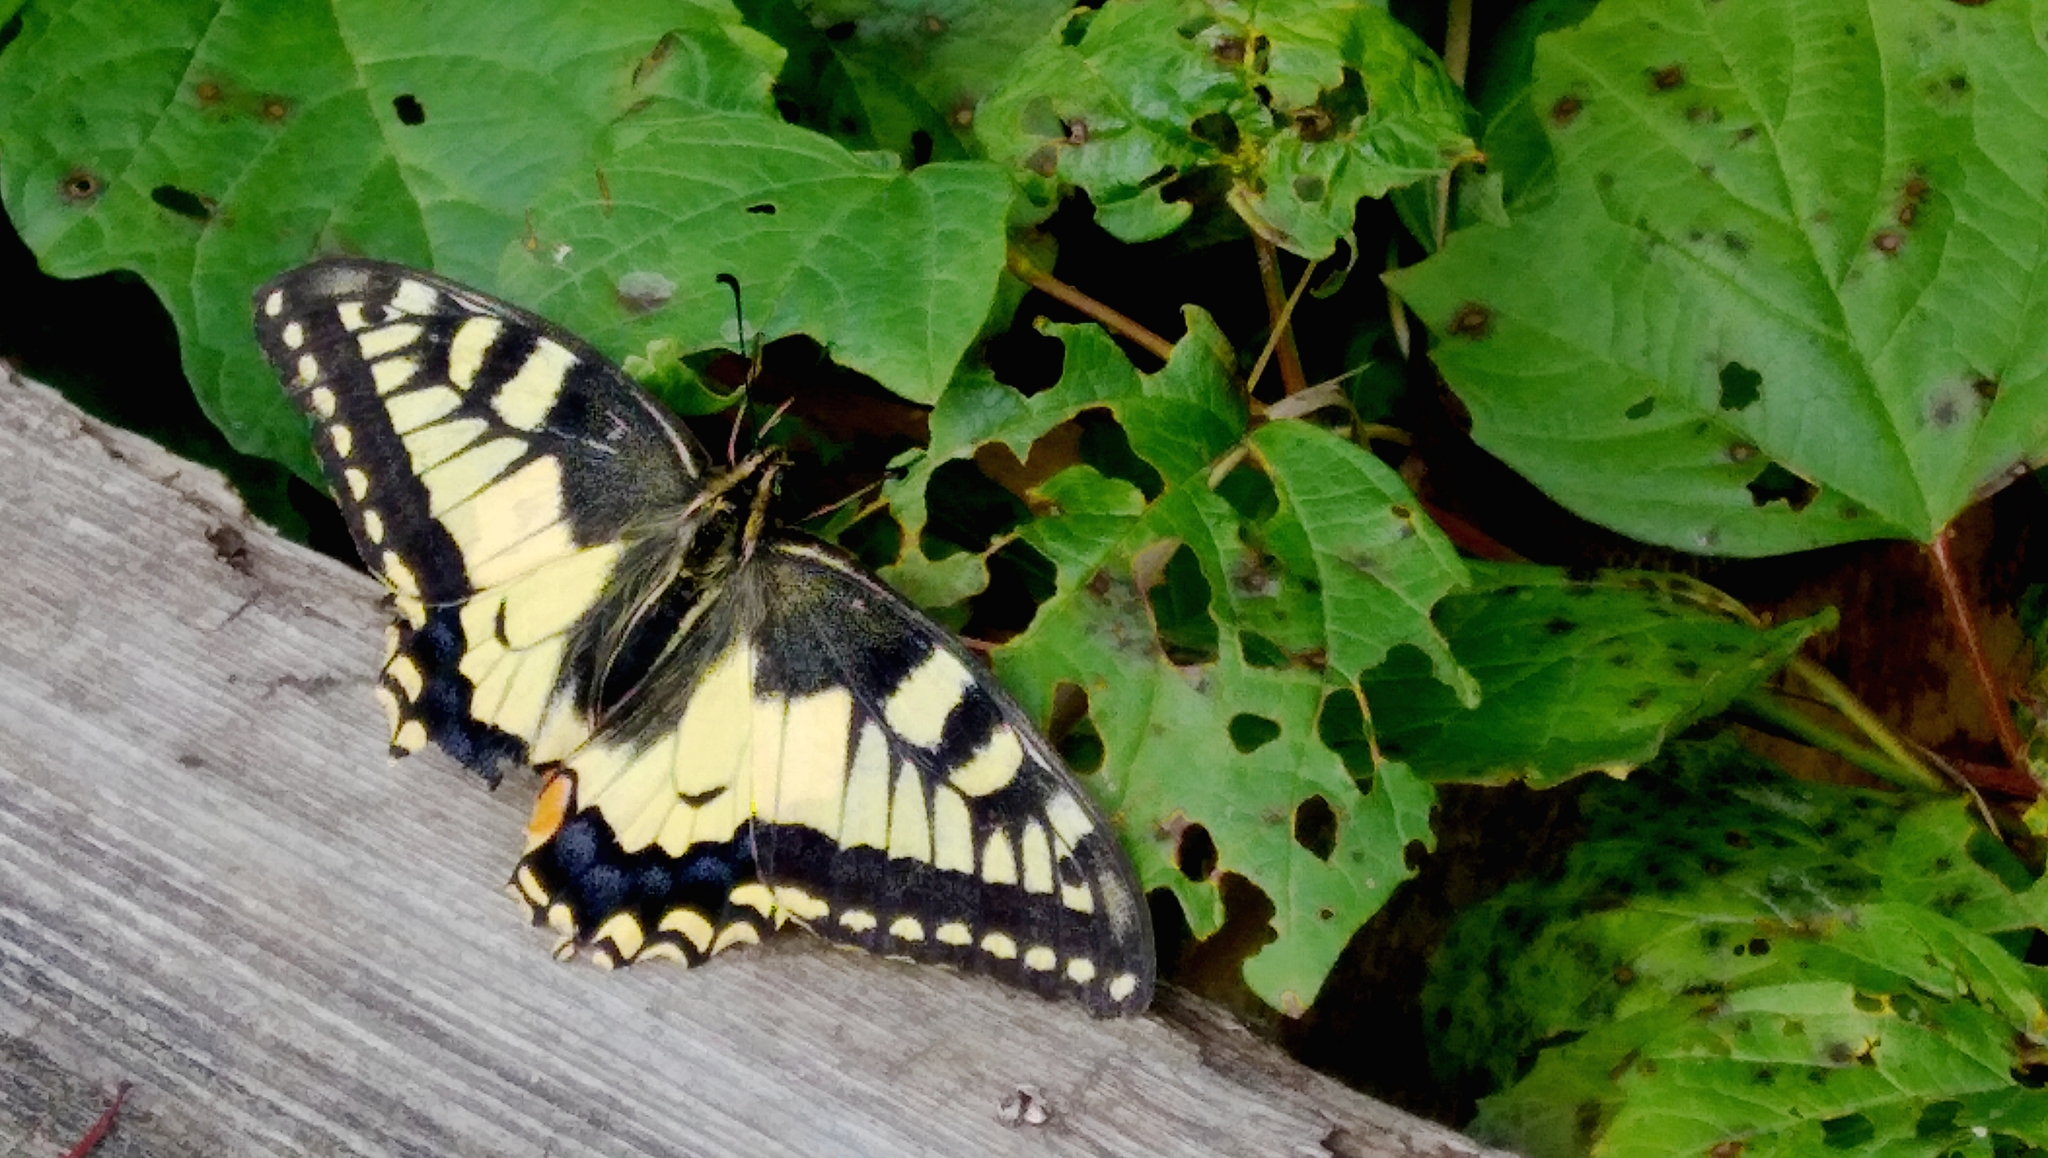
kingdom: Animalia
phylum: Arthropoda
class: Insecta
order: Lepidoptera
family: Papilionidae
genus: Papilio
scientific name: Papilio machaon
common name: Swallowtail
